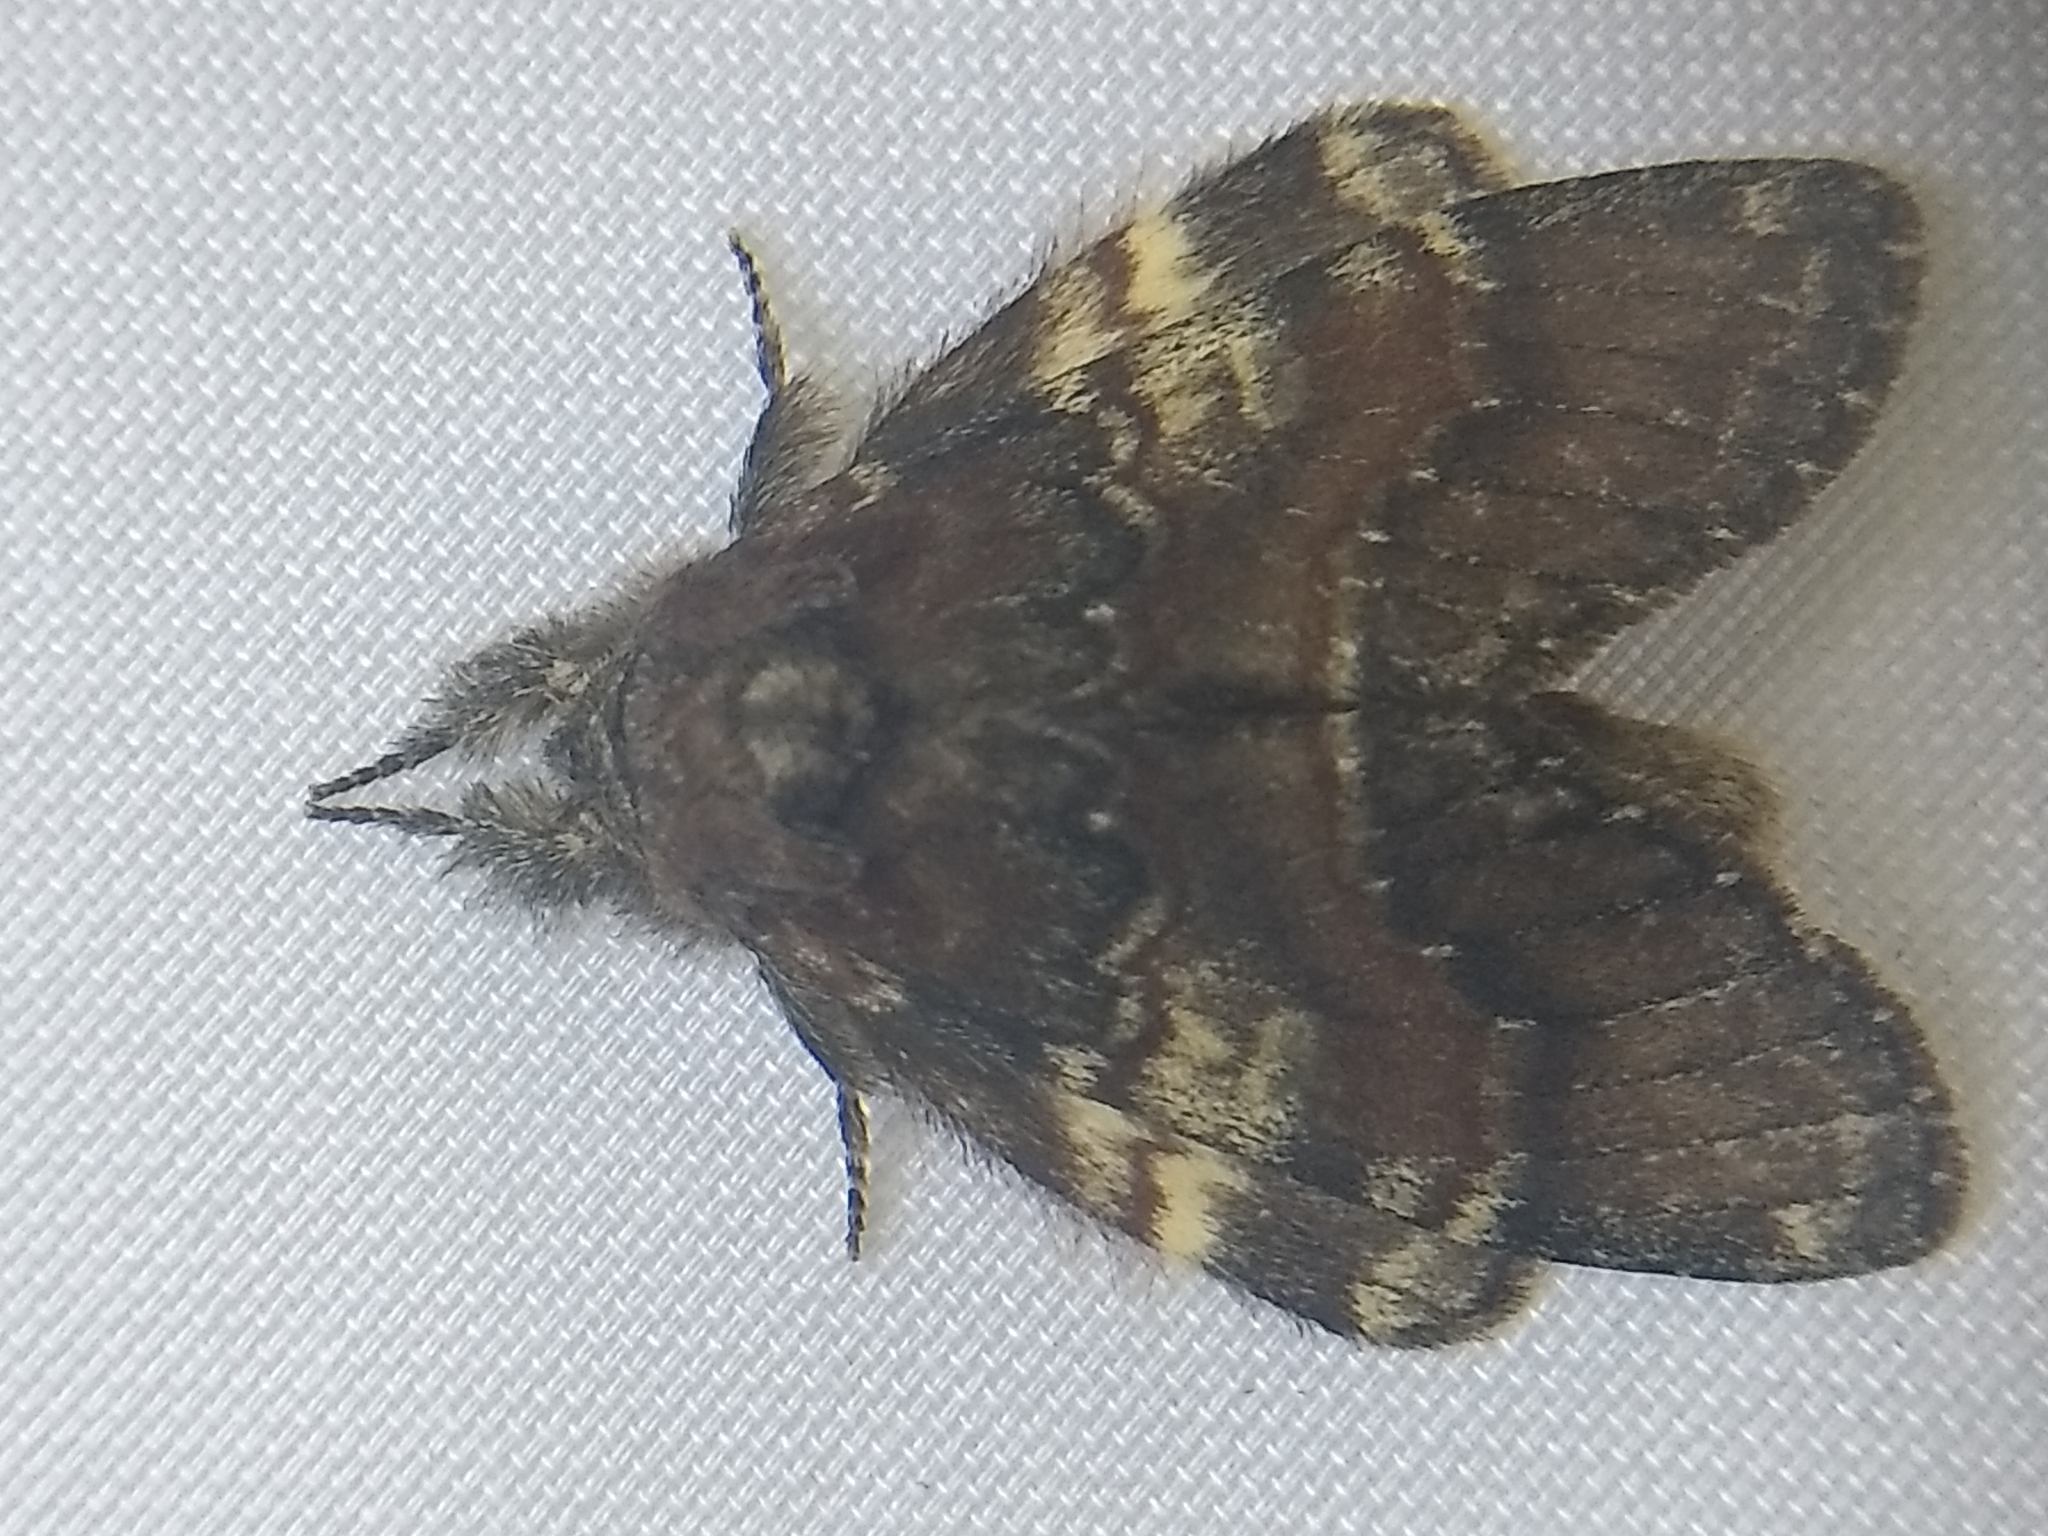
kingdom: Animalia
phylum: Arthropoda
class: Insecta
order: Lepidoptera
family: Notodontidae
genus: Peridea
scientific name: Peridea ferruginea
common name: Chocolate prominent
